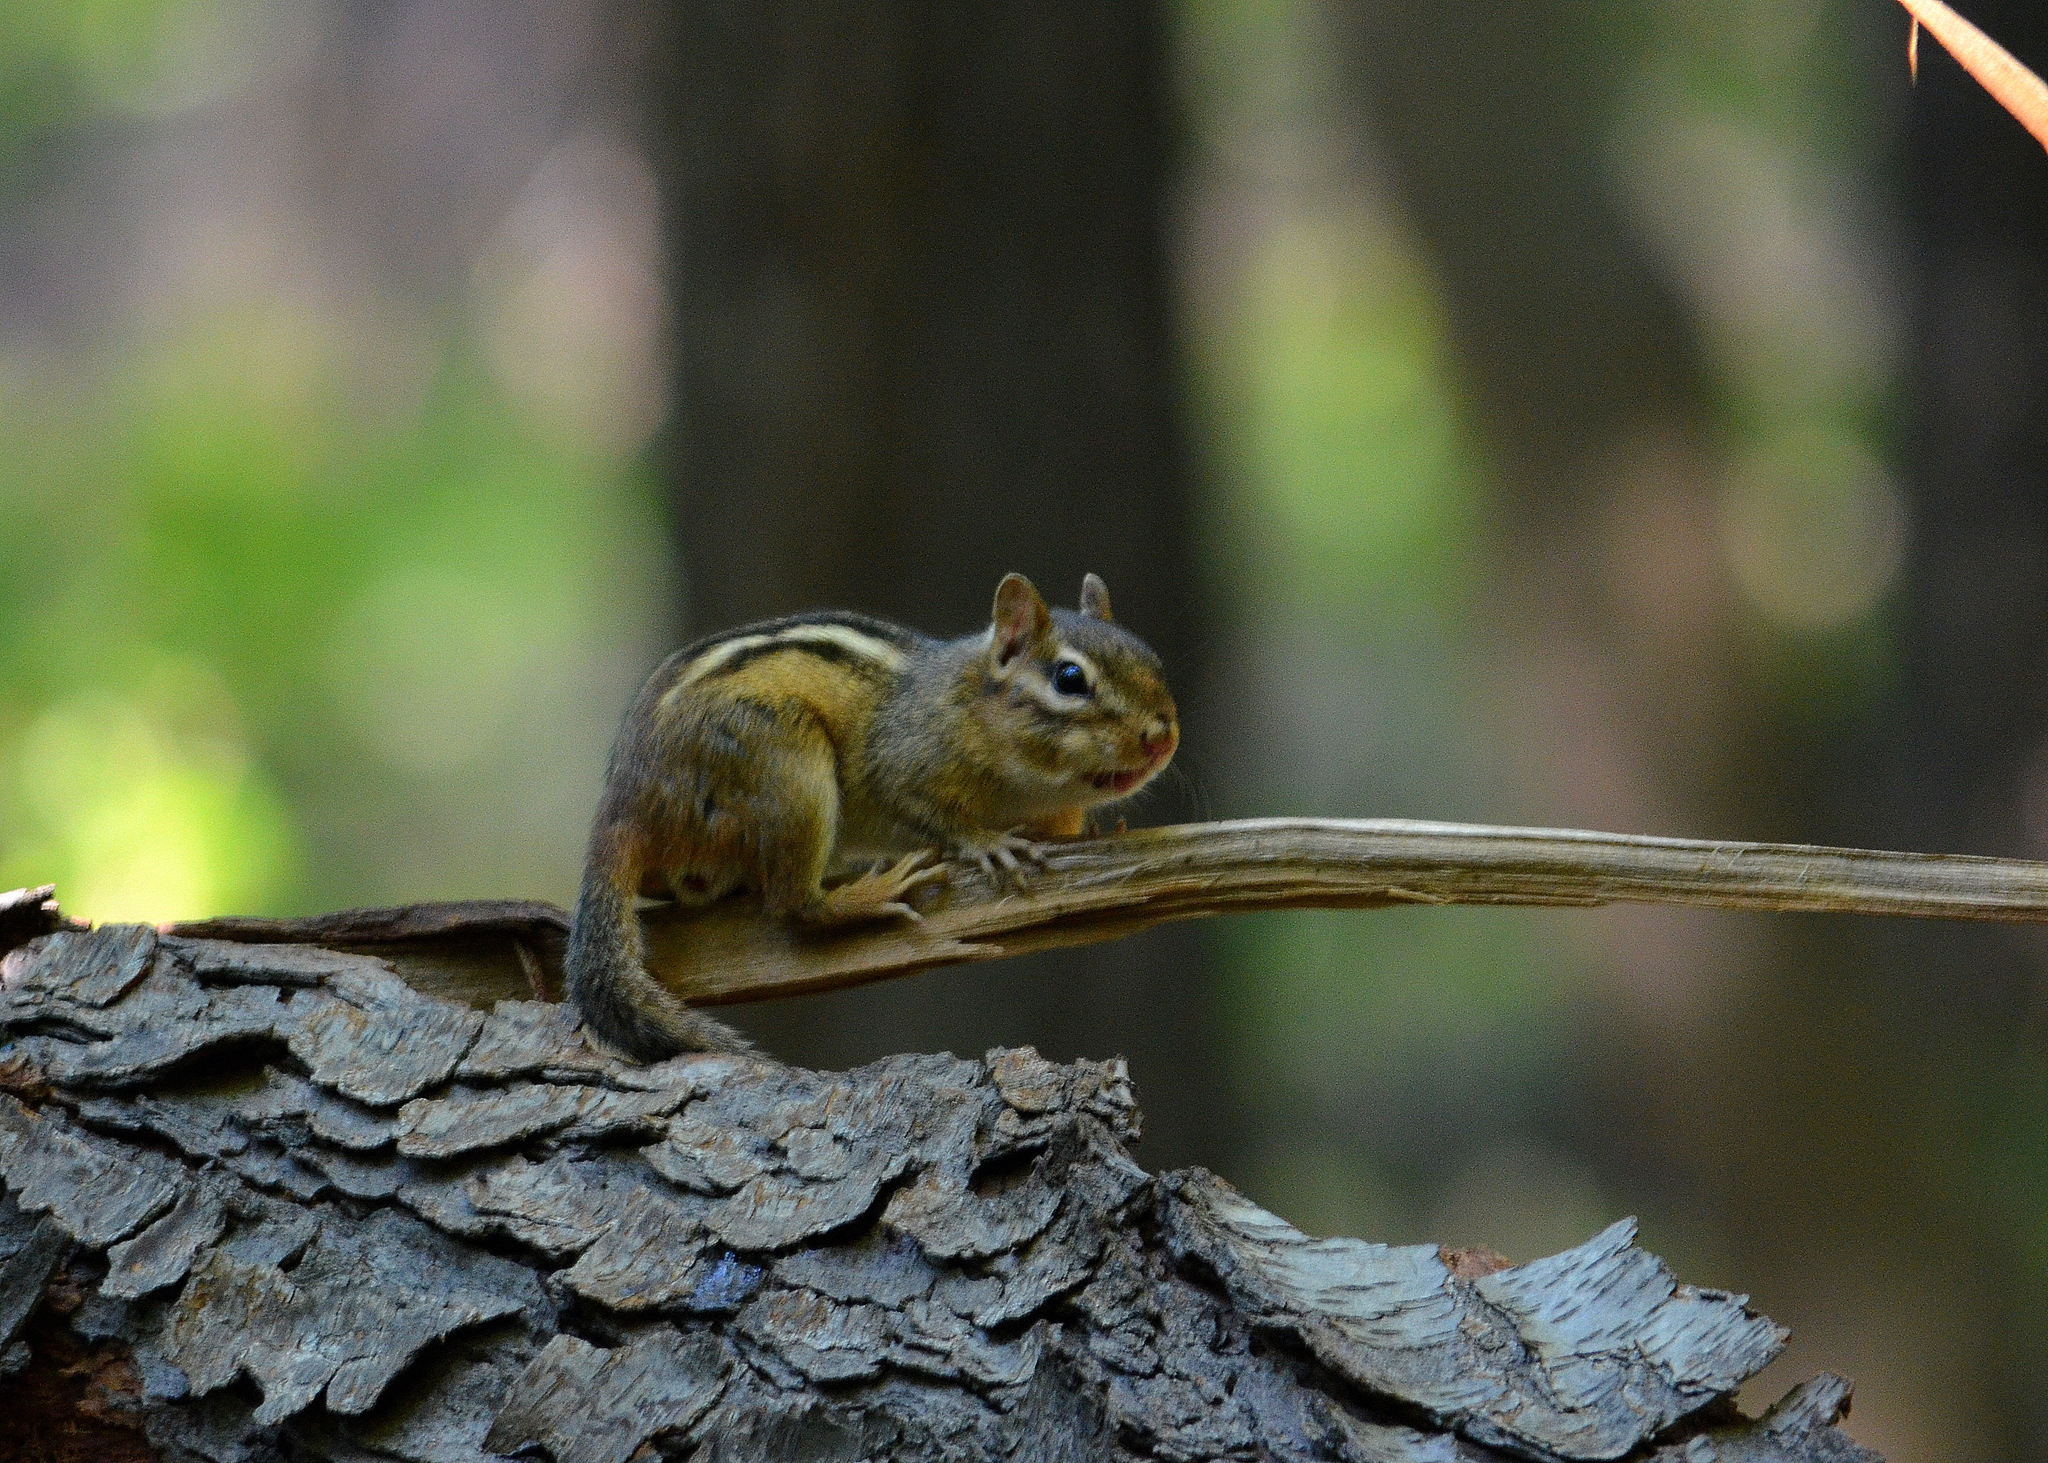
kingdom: Animalia
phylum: Chordata
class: Mammalia
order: Rodentia
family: Sciuridae
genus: Tamias
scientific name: Tamias striatus
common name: Eastern chipmunk
